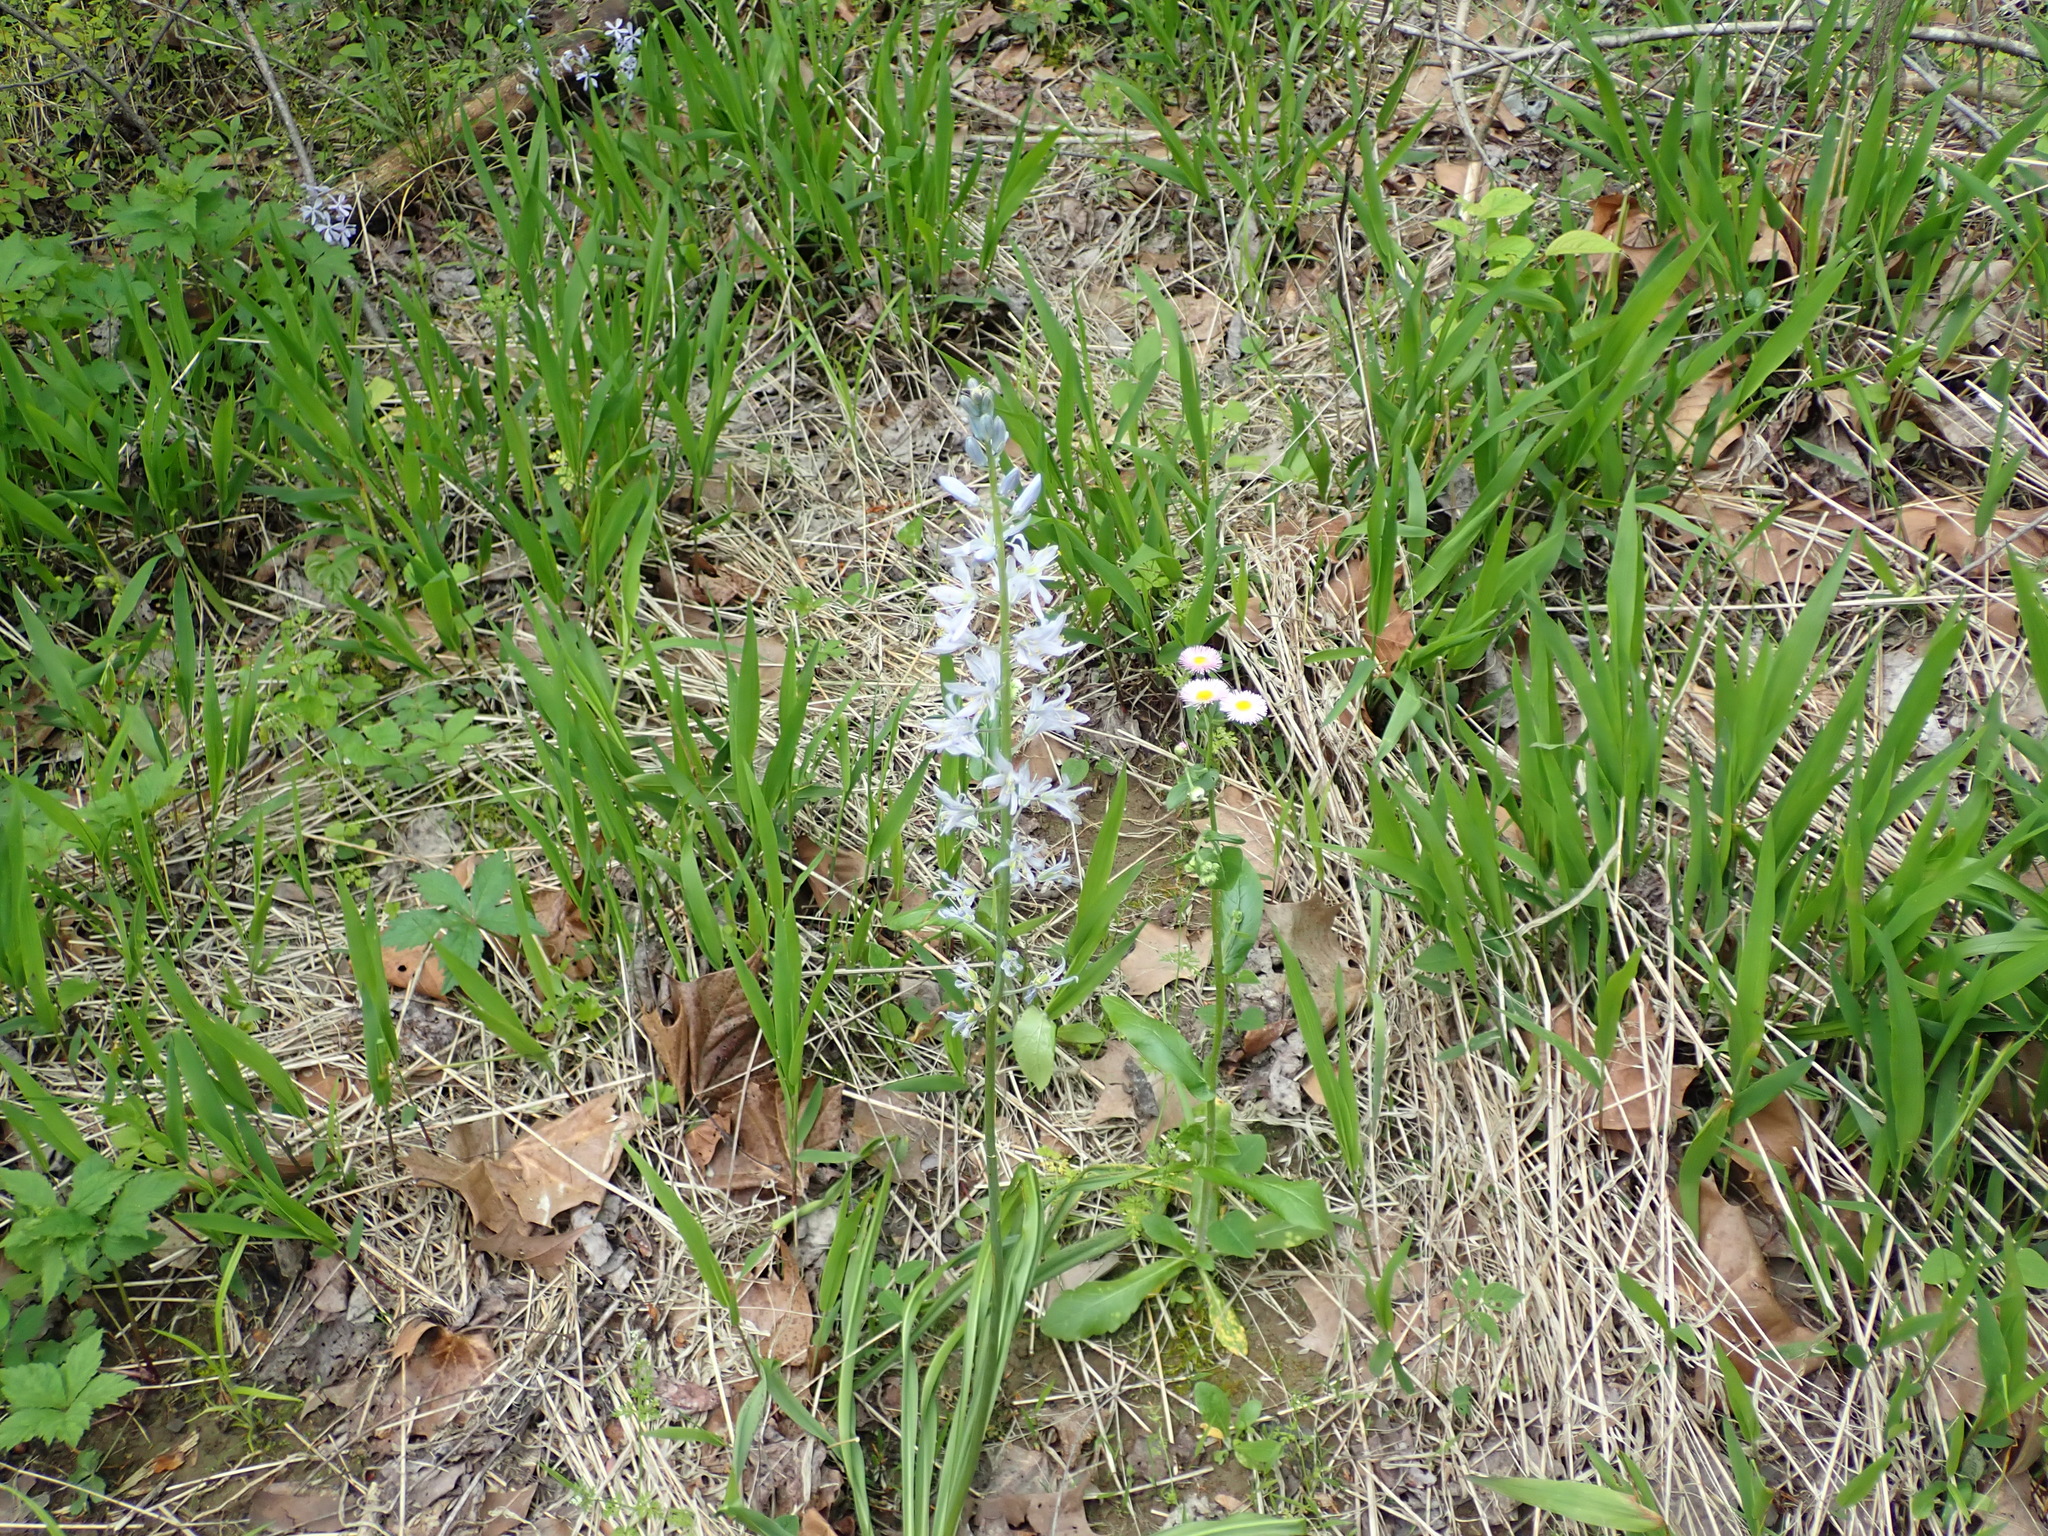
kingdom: Plantae
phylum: Tracheophyta
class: Liliopsida
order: Asparagales
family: Asparagaceae
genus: Camassia
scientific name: Camassia scilloides
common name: Wild hyacinth
